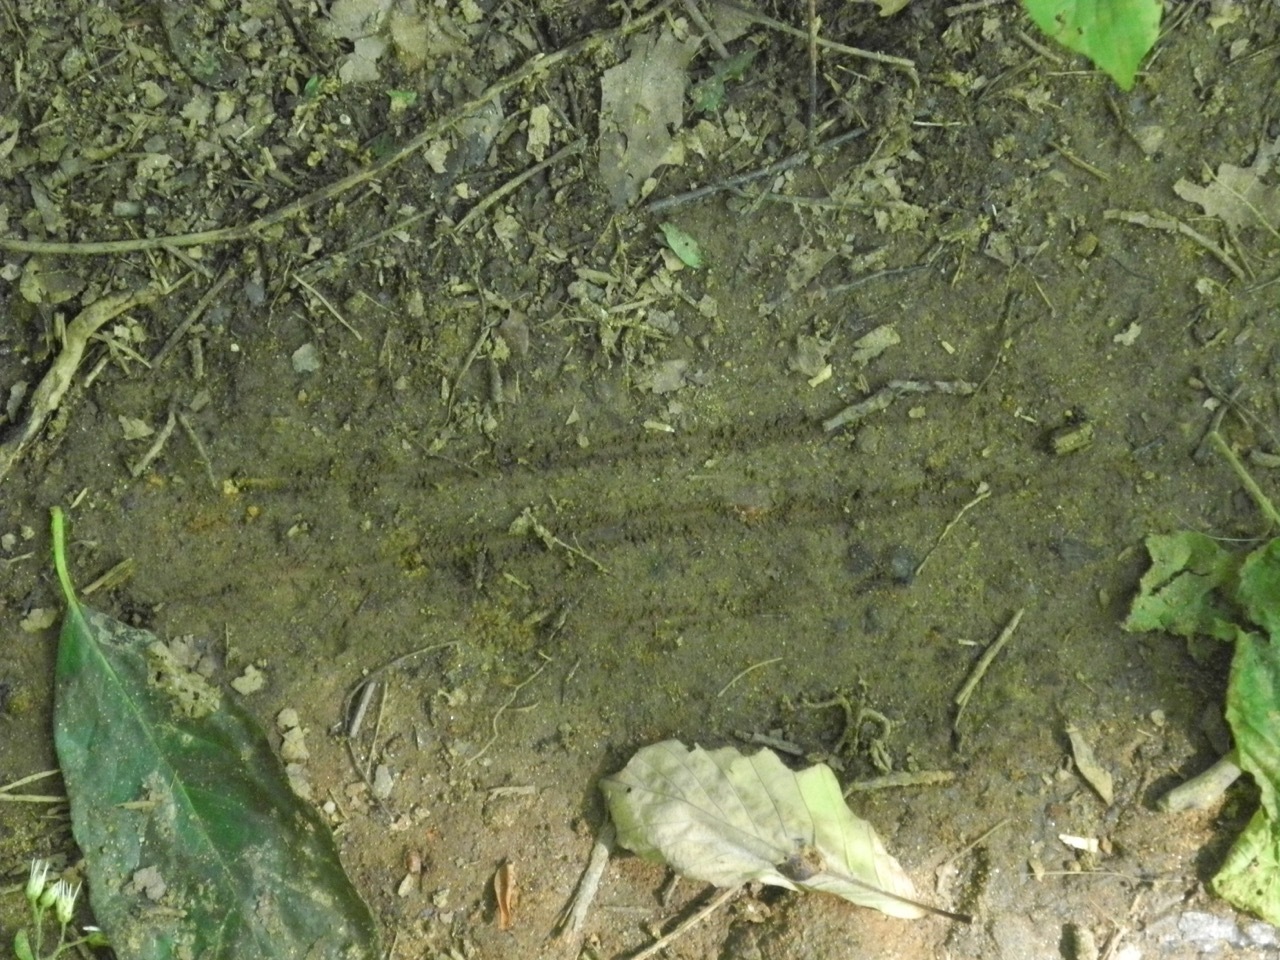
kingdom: Animalia
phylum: Chordata
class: Mammalia
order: Carnivora
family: Ursidae
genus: Ursus
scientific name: Ursus americanus
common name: American black bear
